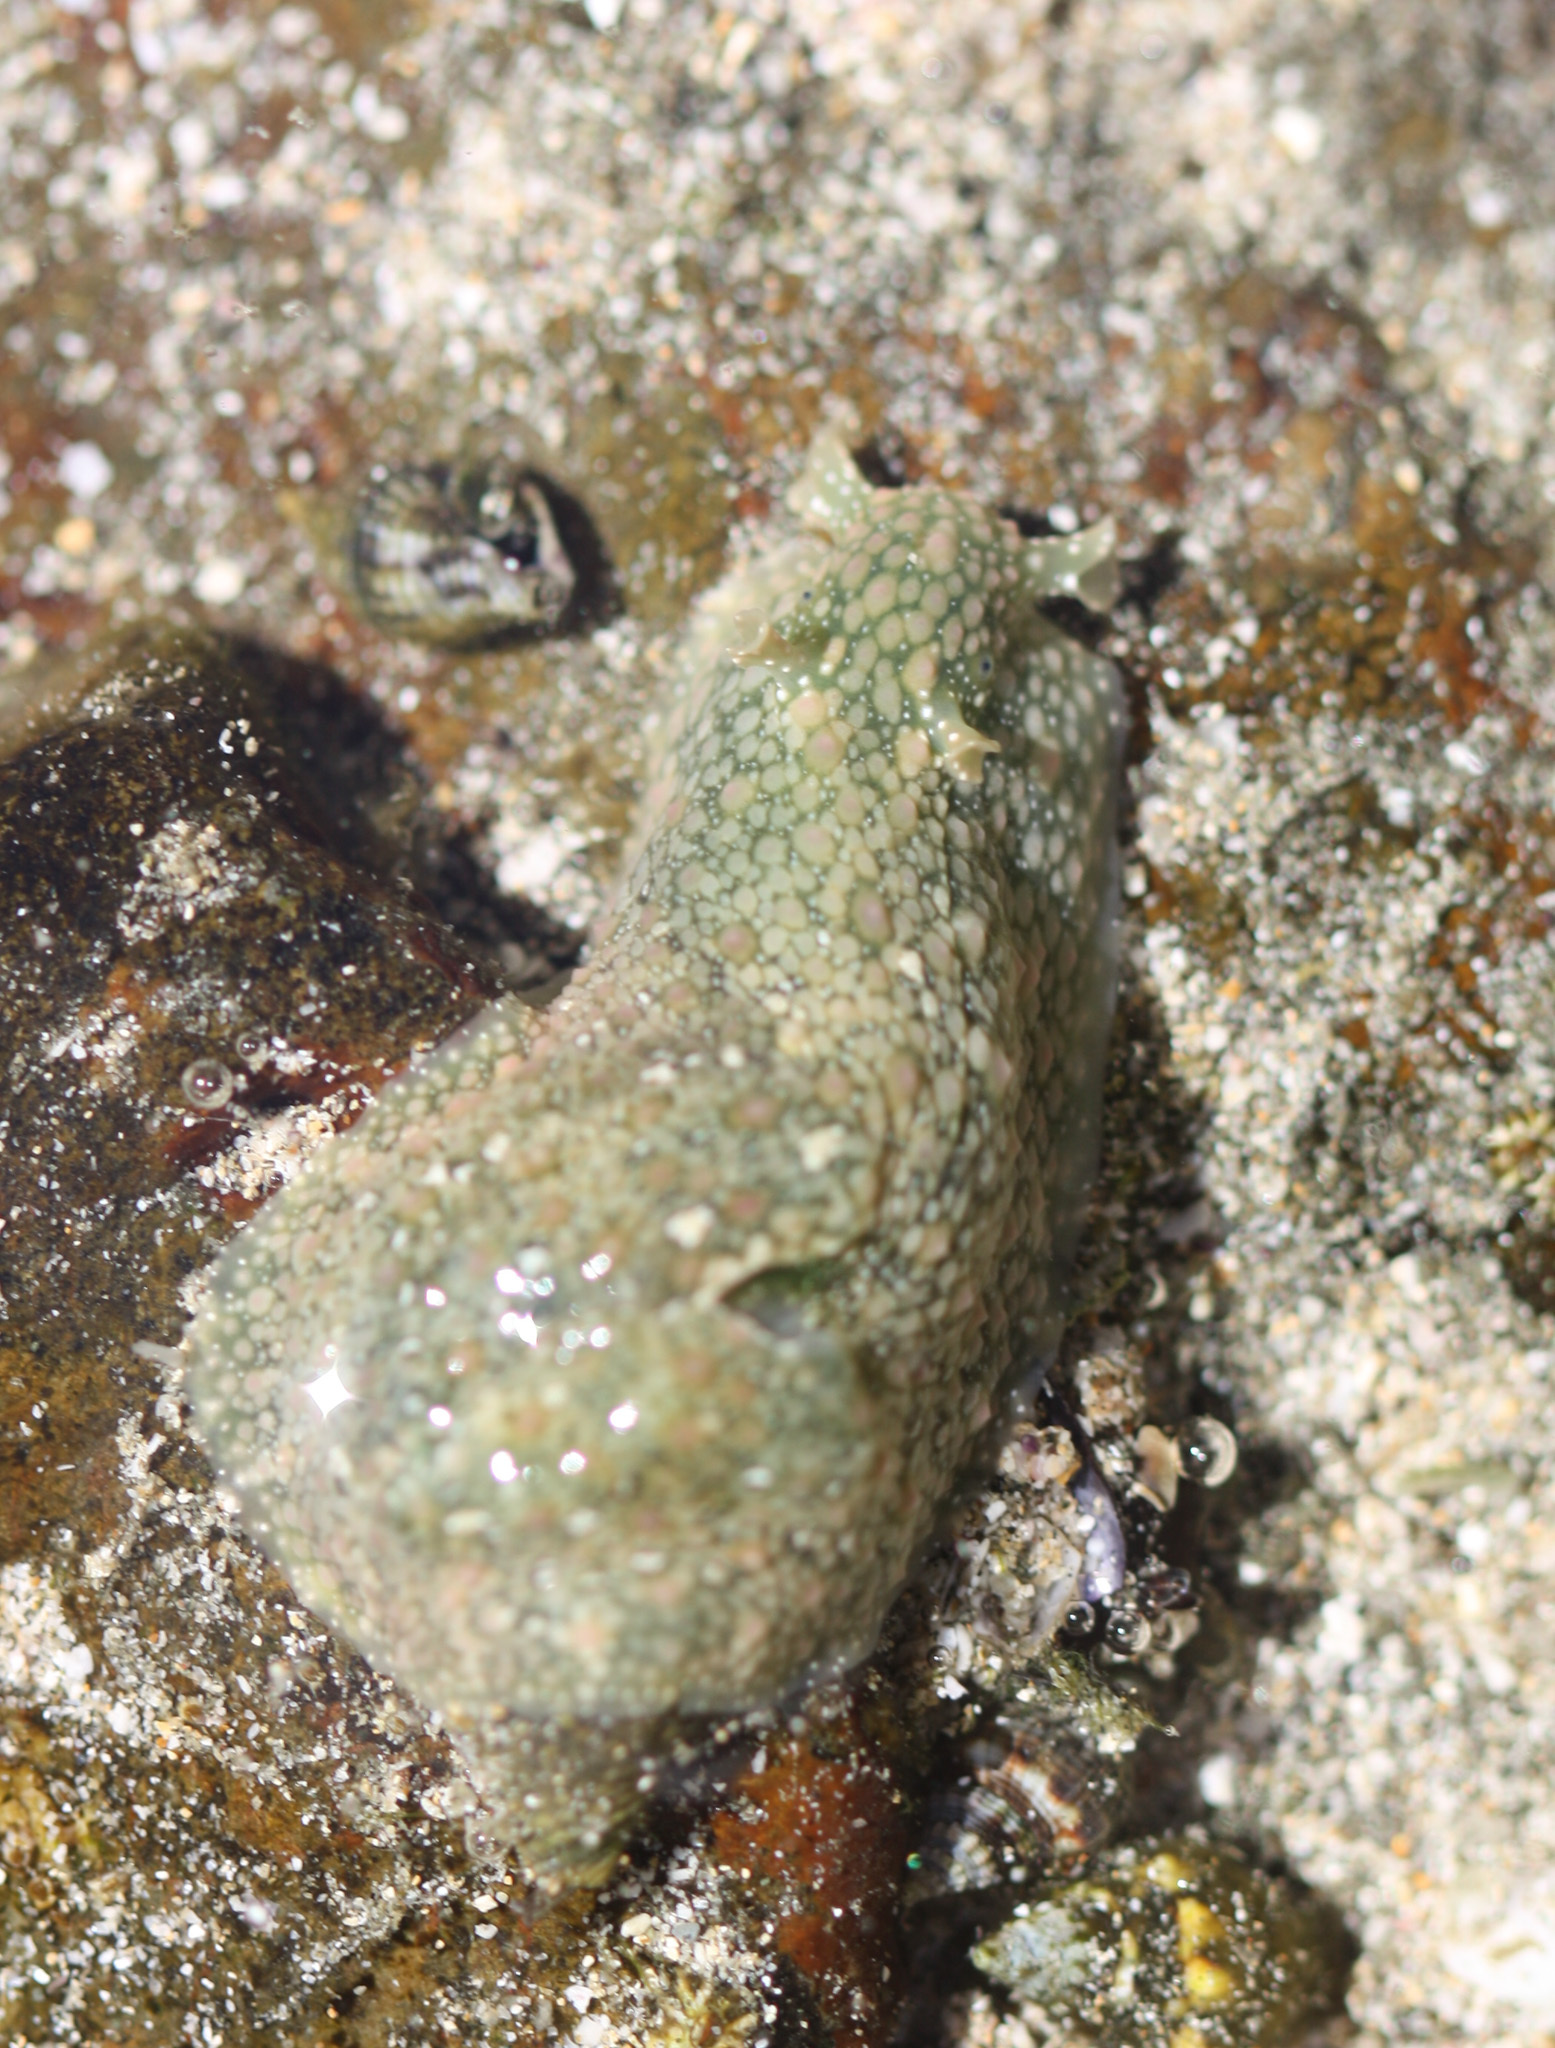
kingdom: Animalia
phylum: Mollusca
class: Gastropoda
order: Aplysiida
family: Aplysiidae
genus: Dolabrifera
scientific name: Dolabrifera nicaraguana
